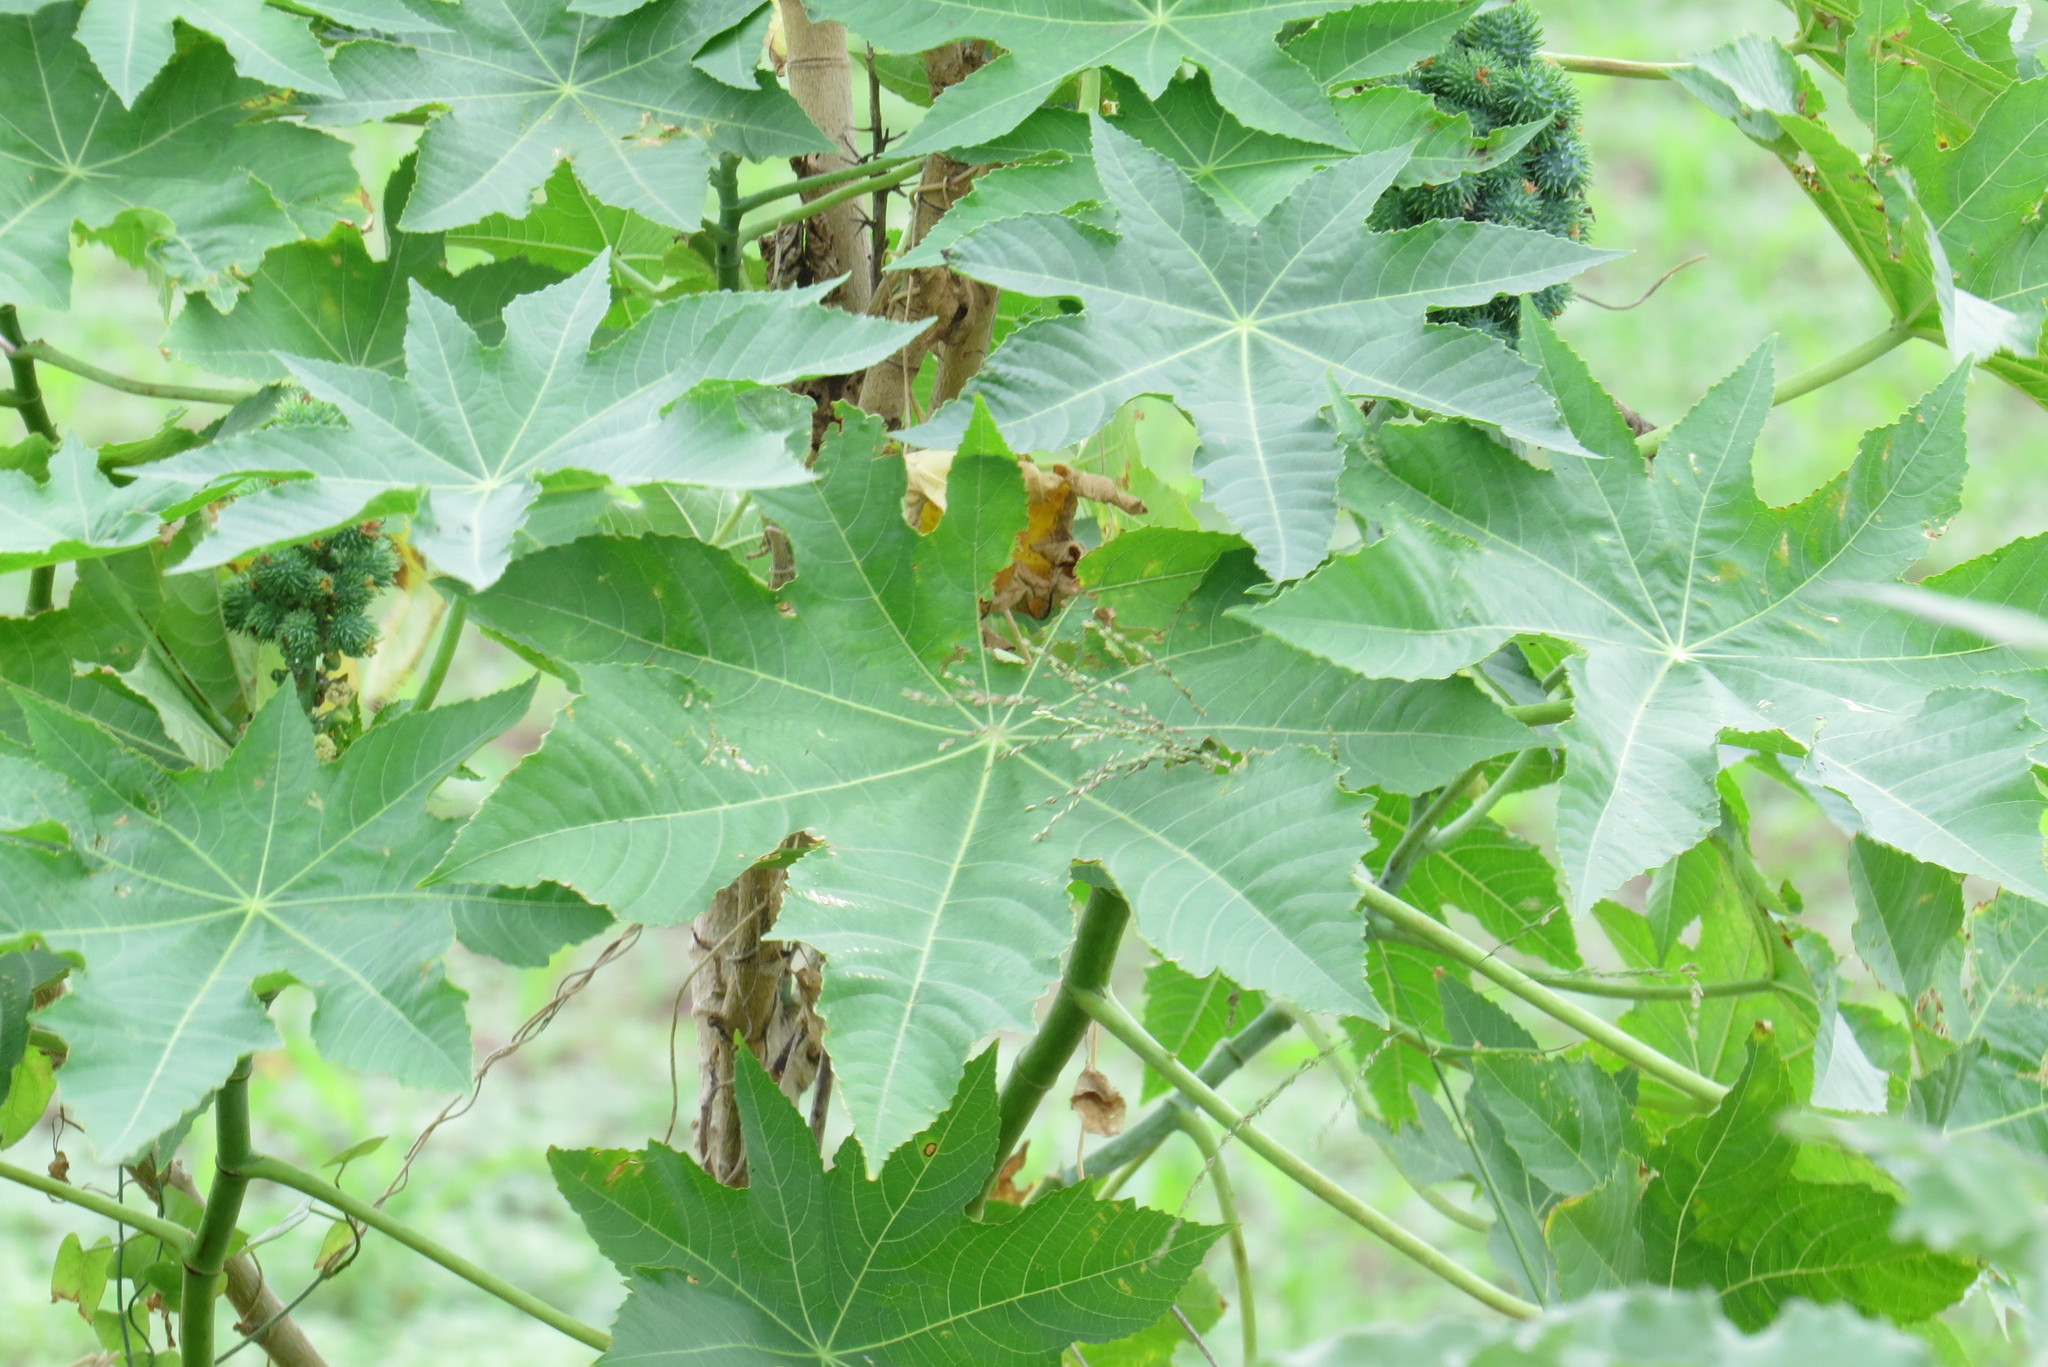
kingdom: Plantae
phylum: Tracheophyta
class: Magnoliopsida
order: Malpighiales
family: Euphorbiaceae
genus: Ricinus
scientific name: Ricinus communis
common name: Castor-oil-plant
